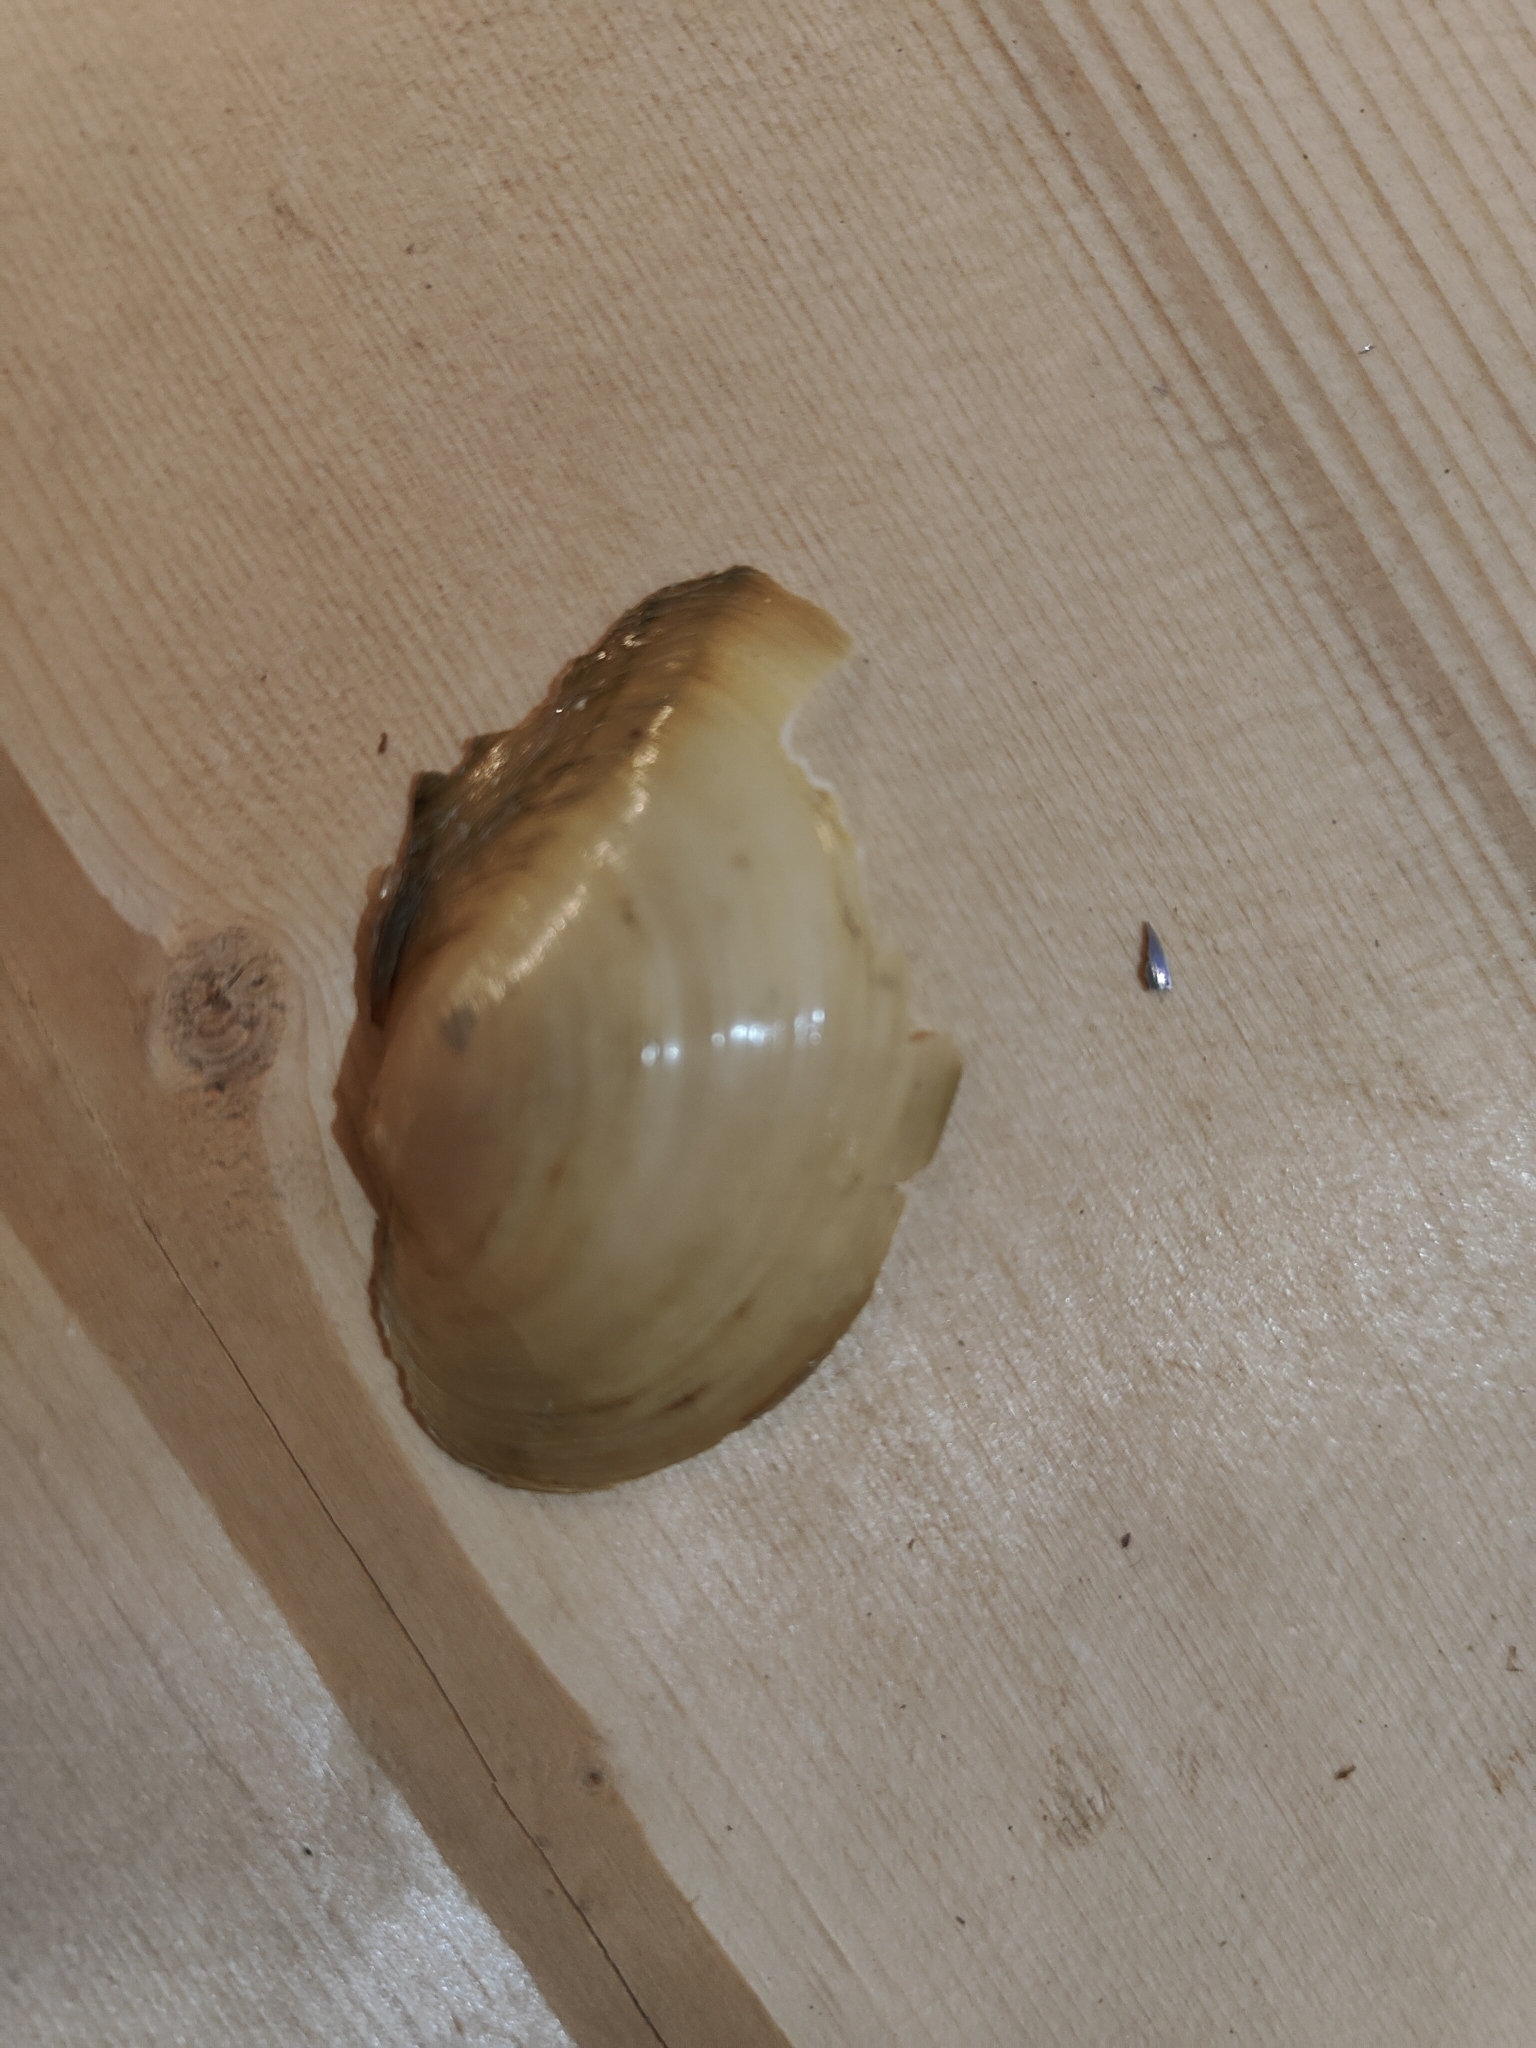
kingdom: Animalia
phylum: Mollusca
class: Bivalvia
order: Unionida
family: Unionidae
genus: Pyganodon
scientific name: Pyganodon grandis
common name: Giant floater
